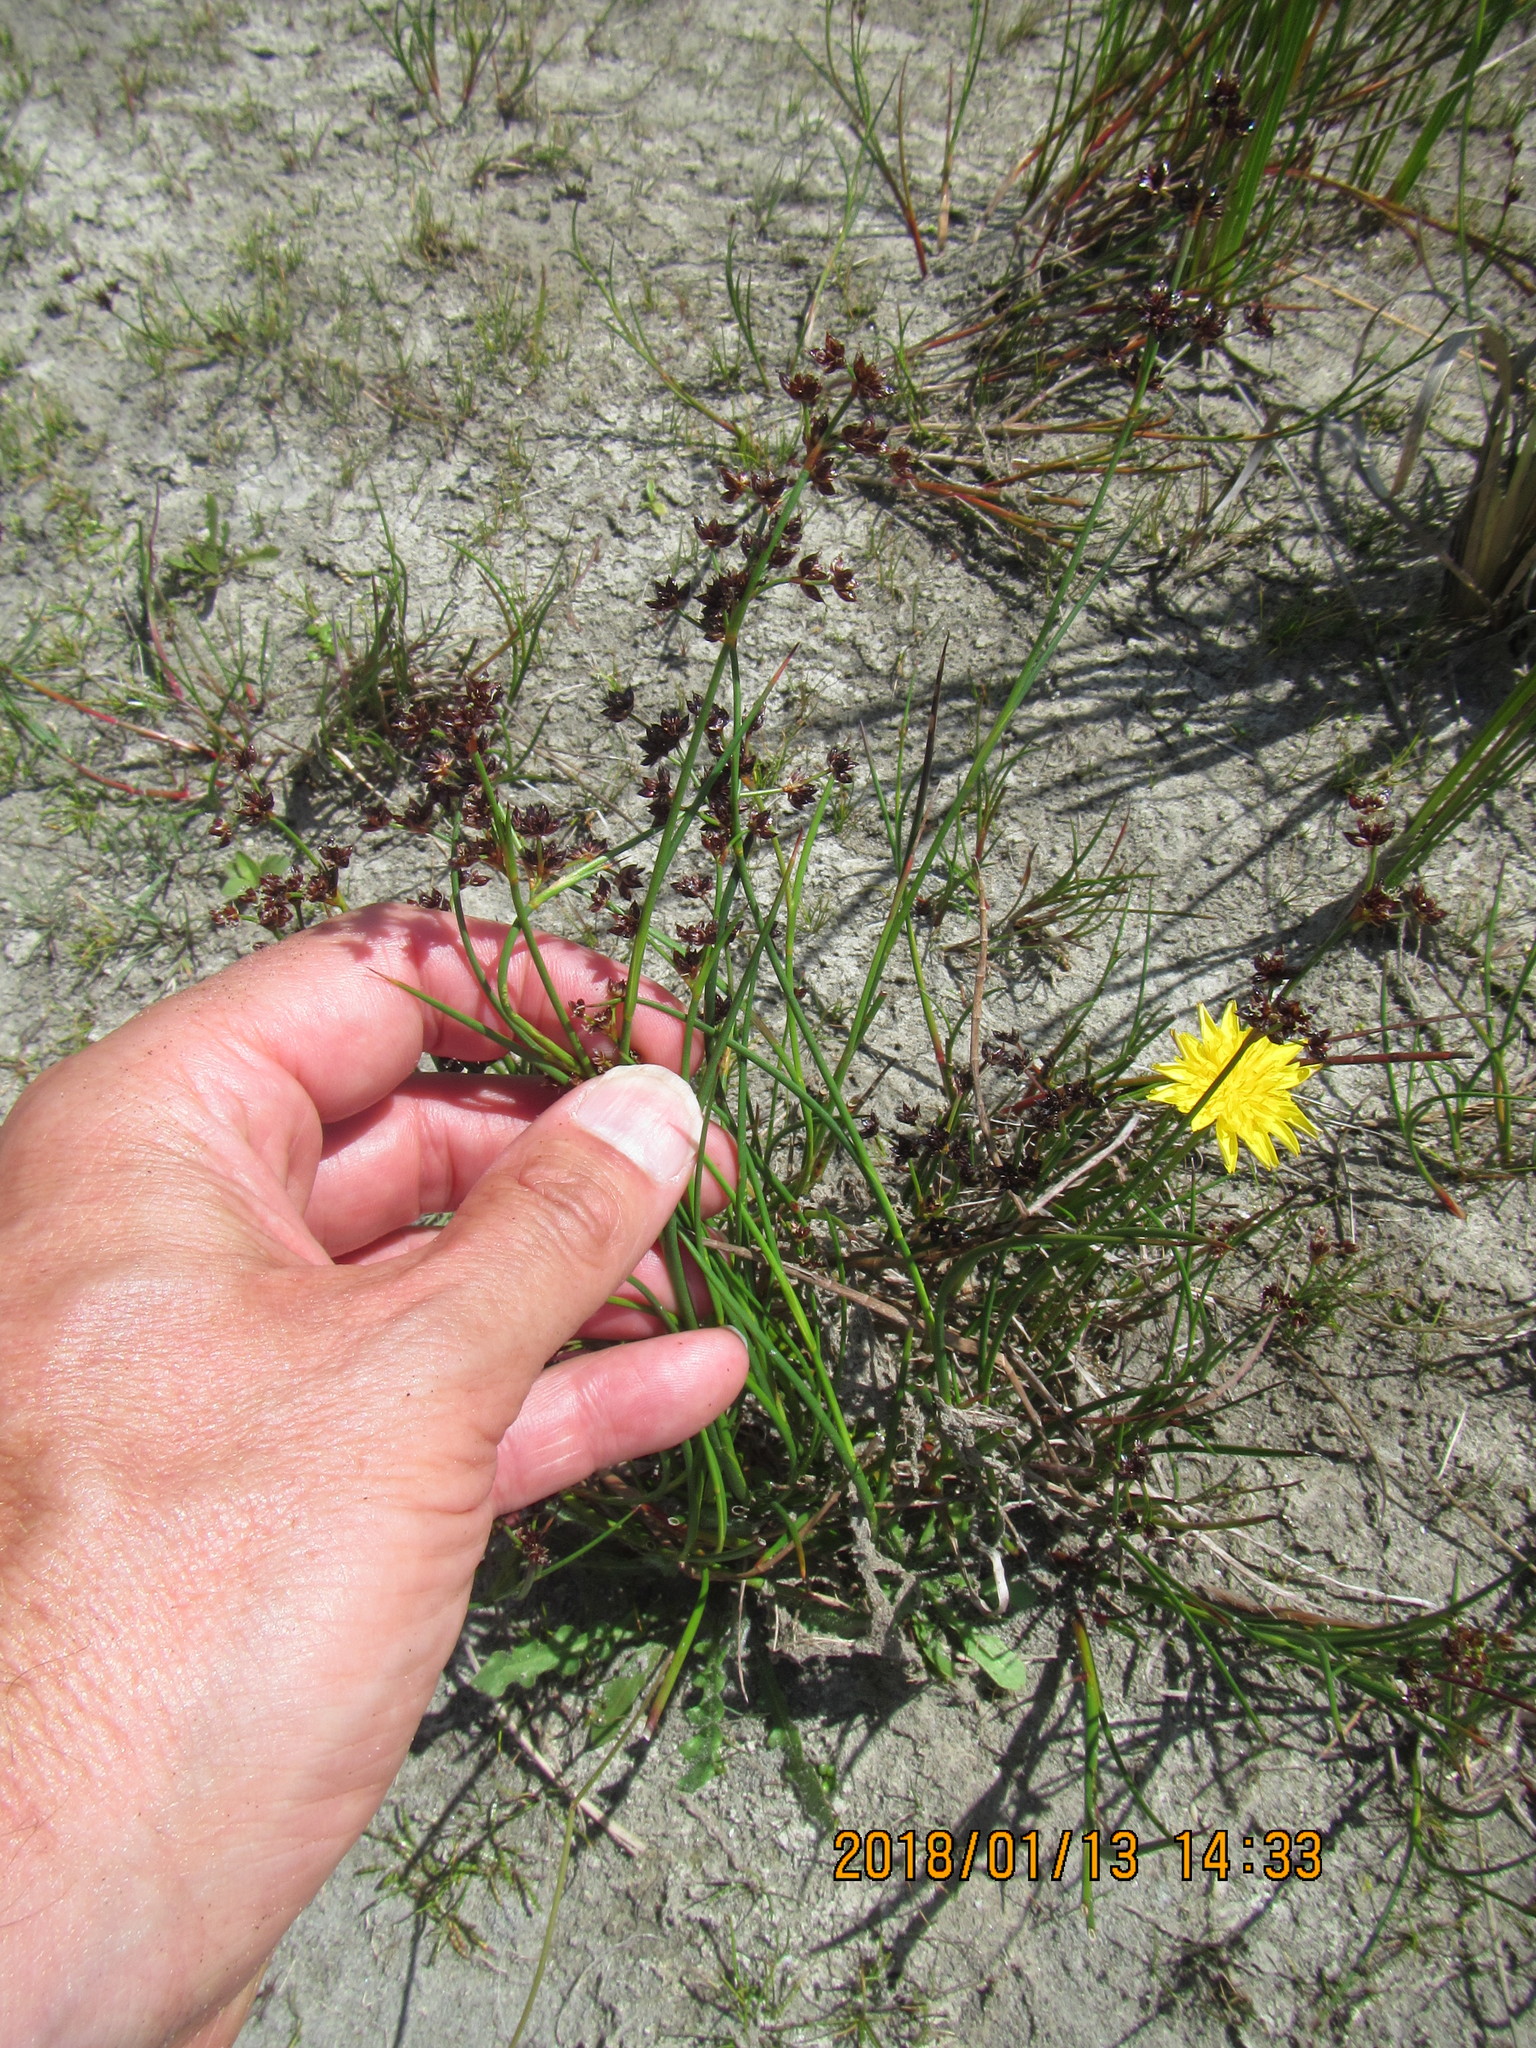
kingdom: Plantae
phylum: Tracheophyta
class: Liliopsida
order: Poales
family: Juncaceae
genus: Juncus
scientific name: Juncus articulatus
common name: Jointed rush
